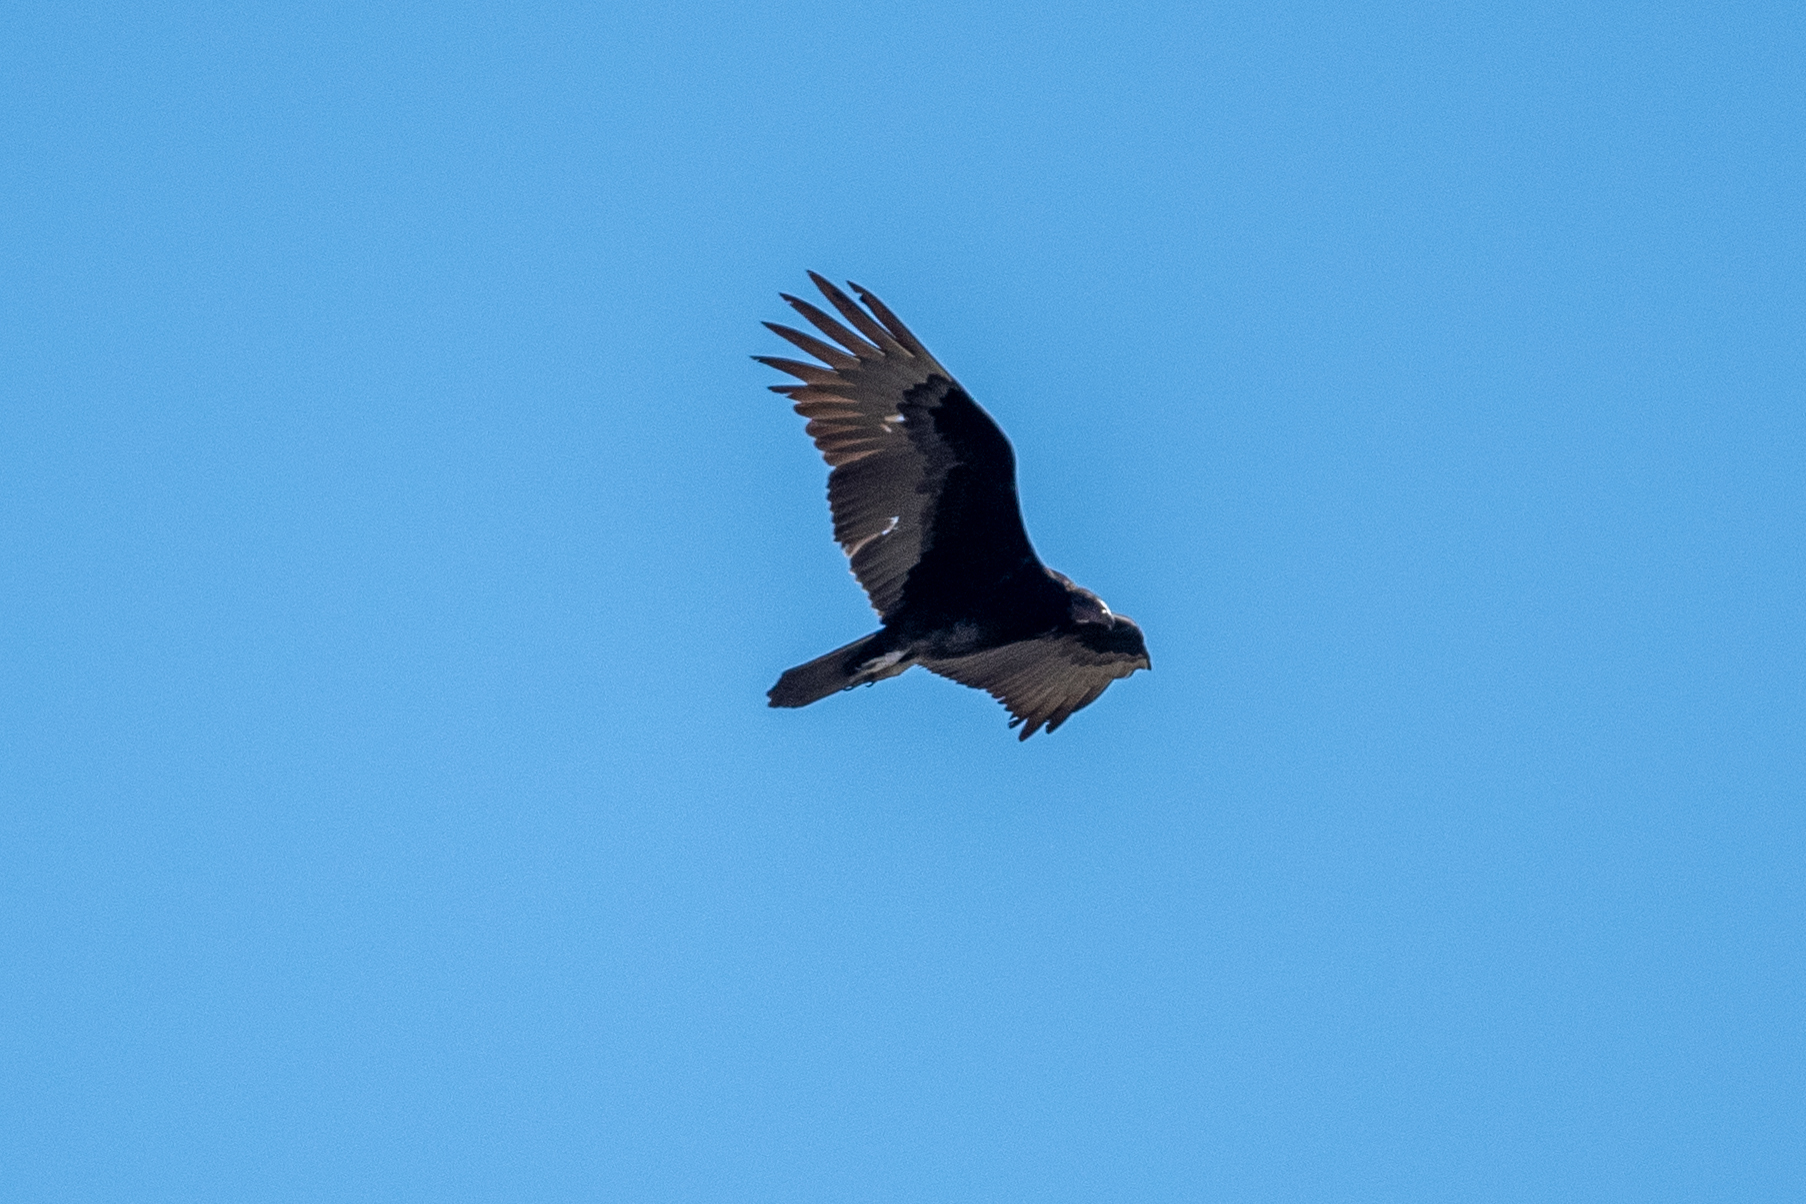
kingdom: Animalia
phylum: Chordata
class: Aves
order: Accipitriformes
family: Cathartidae
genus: Cathartes
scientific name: Cathartes aura
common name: Turkey vulture
